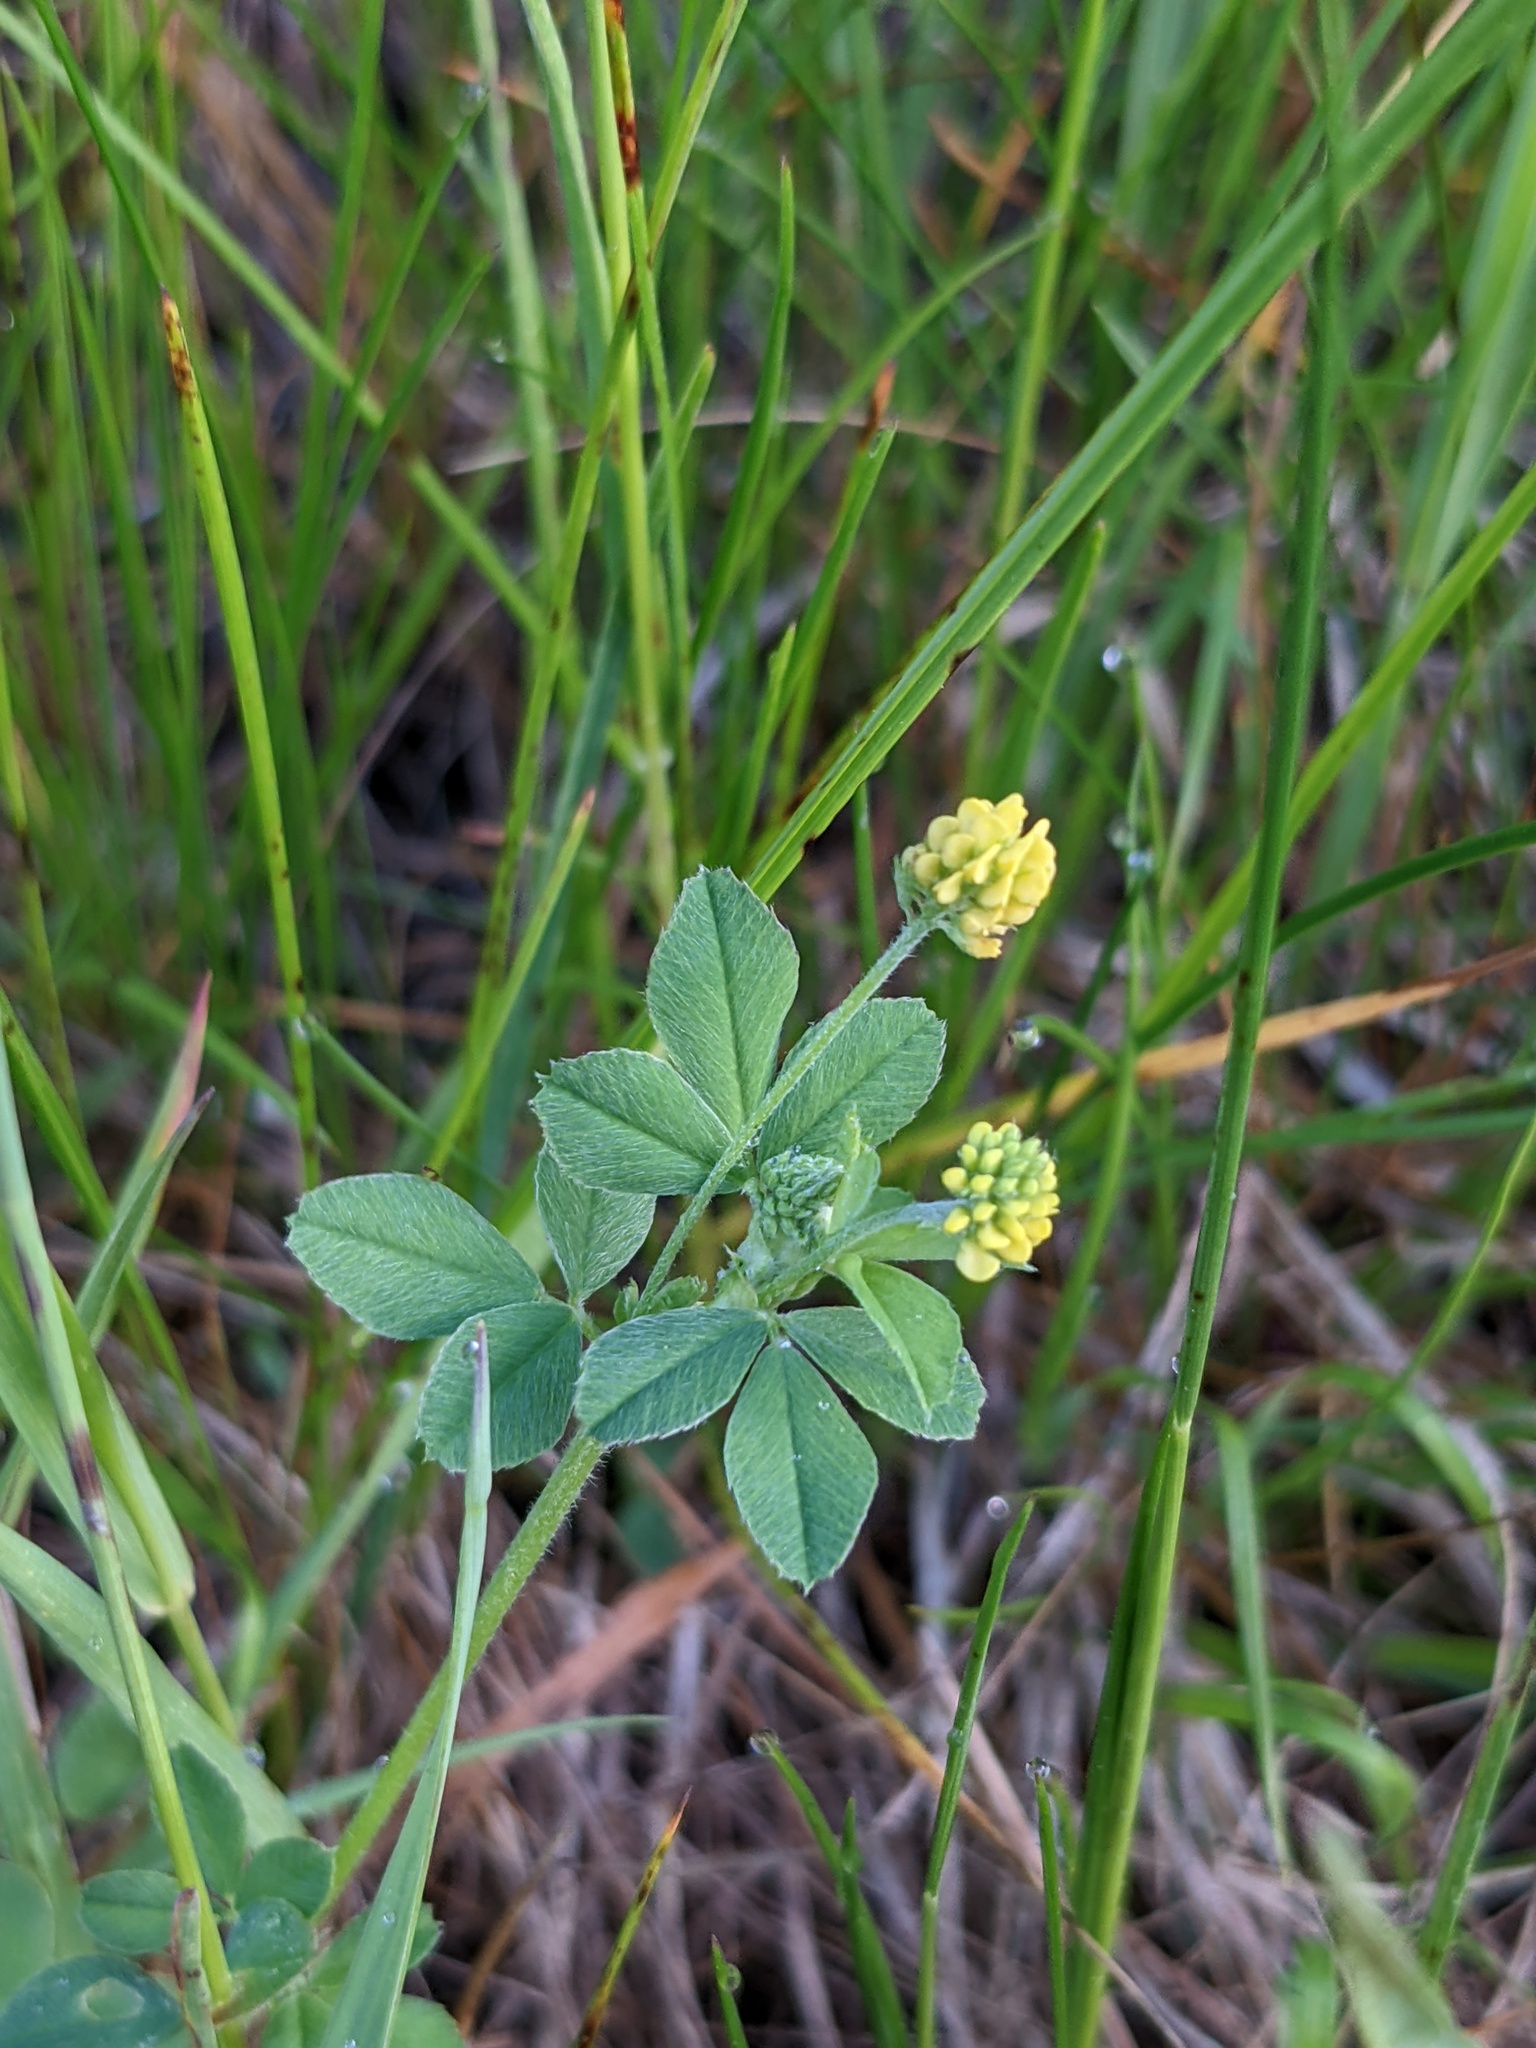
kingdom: Plantae
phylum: Tracheophyta
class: Magnoliopsida
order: Fabales
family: Fabaceae
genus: Medicago
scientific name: Medicago lupulina
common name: Black medick
